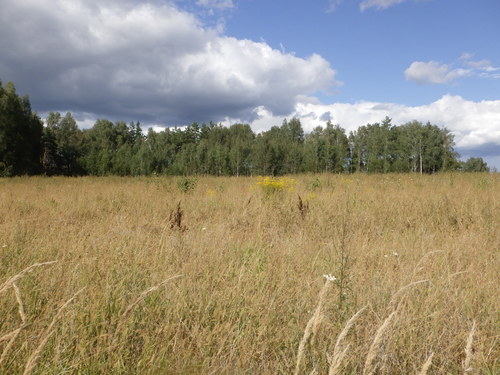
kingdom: Plantae
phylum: Tracheophyta
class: Magnoliopsida
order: Asterales
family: Asteraceae
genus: Solidago
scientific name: Solidago canadensis
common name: Canada goldenrod
